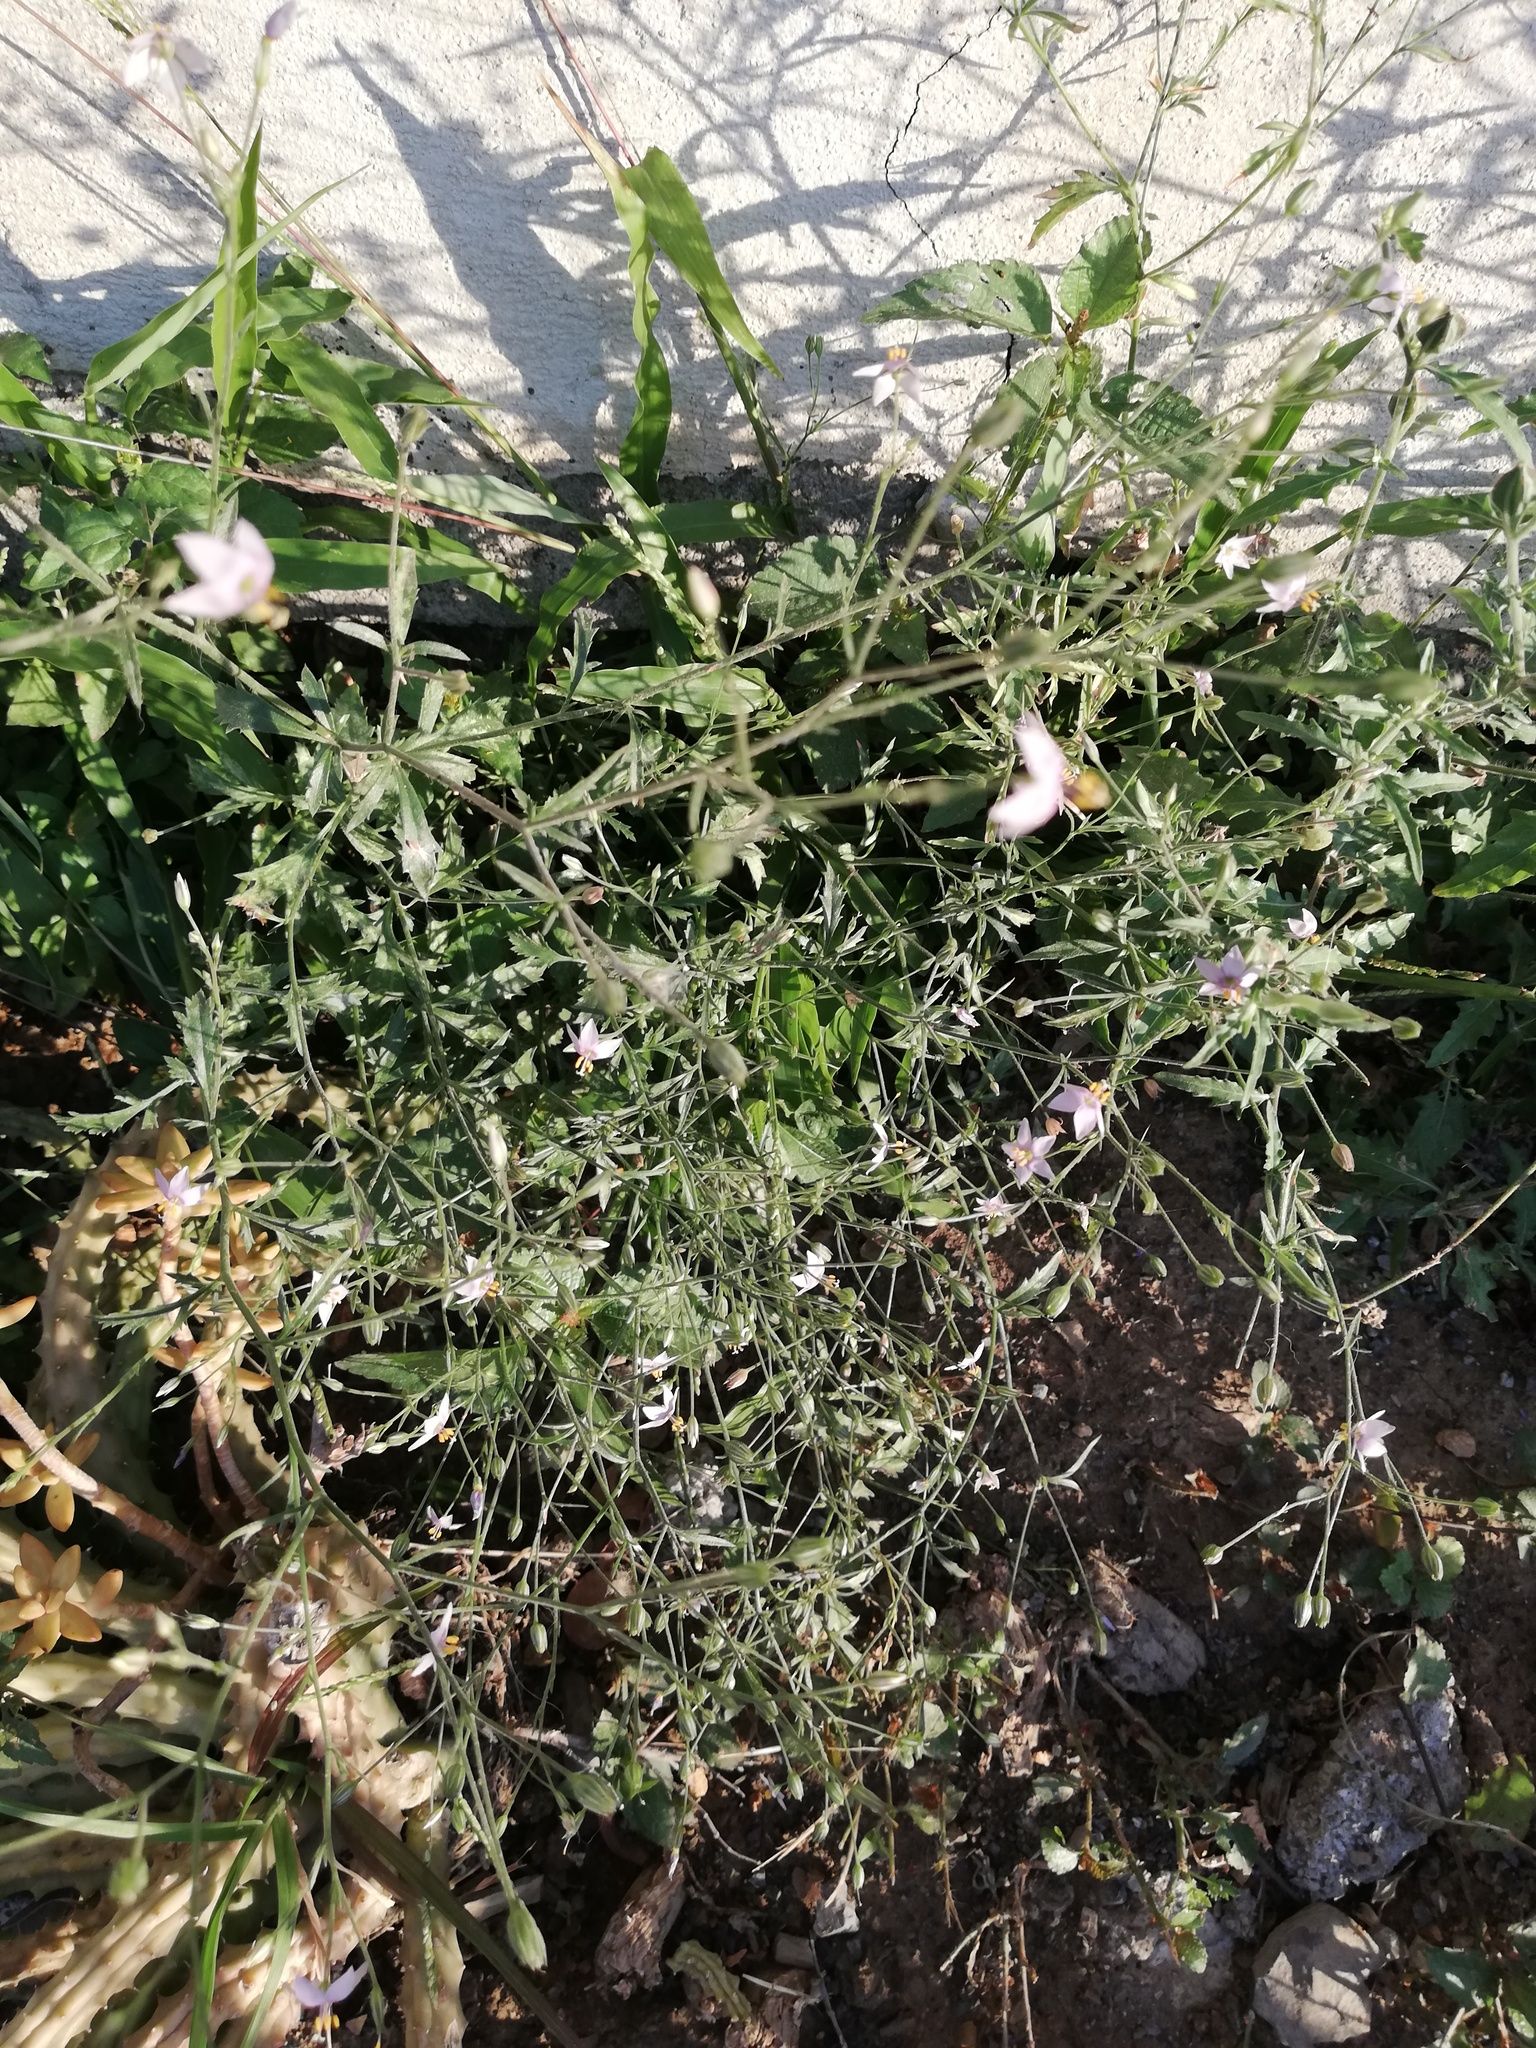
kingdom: Plantae
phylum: Tracheophyta
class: Magnoliopsida
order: Ericales
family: Polemoniaceae
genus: Giliastrum
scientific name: Giliastrum incisum
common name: Splitleaf gilia
